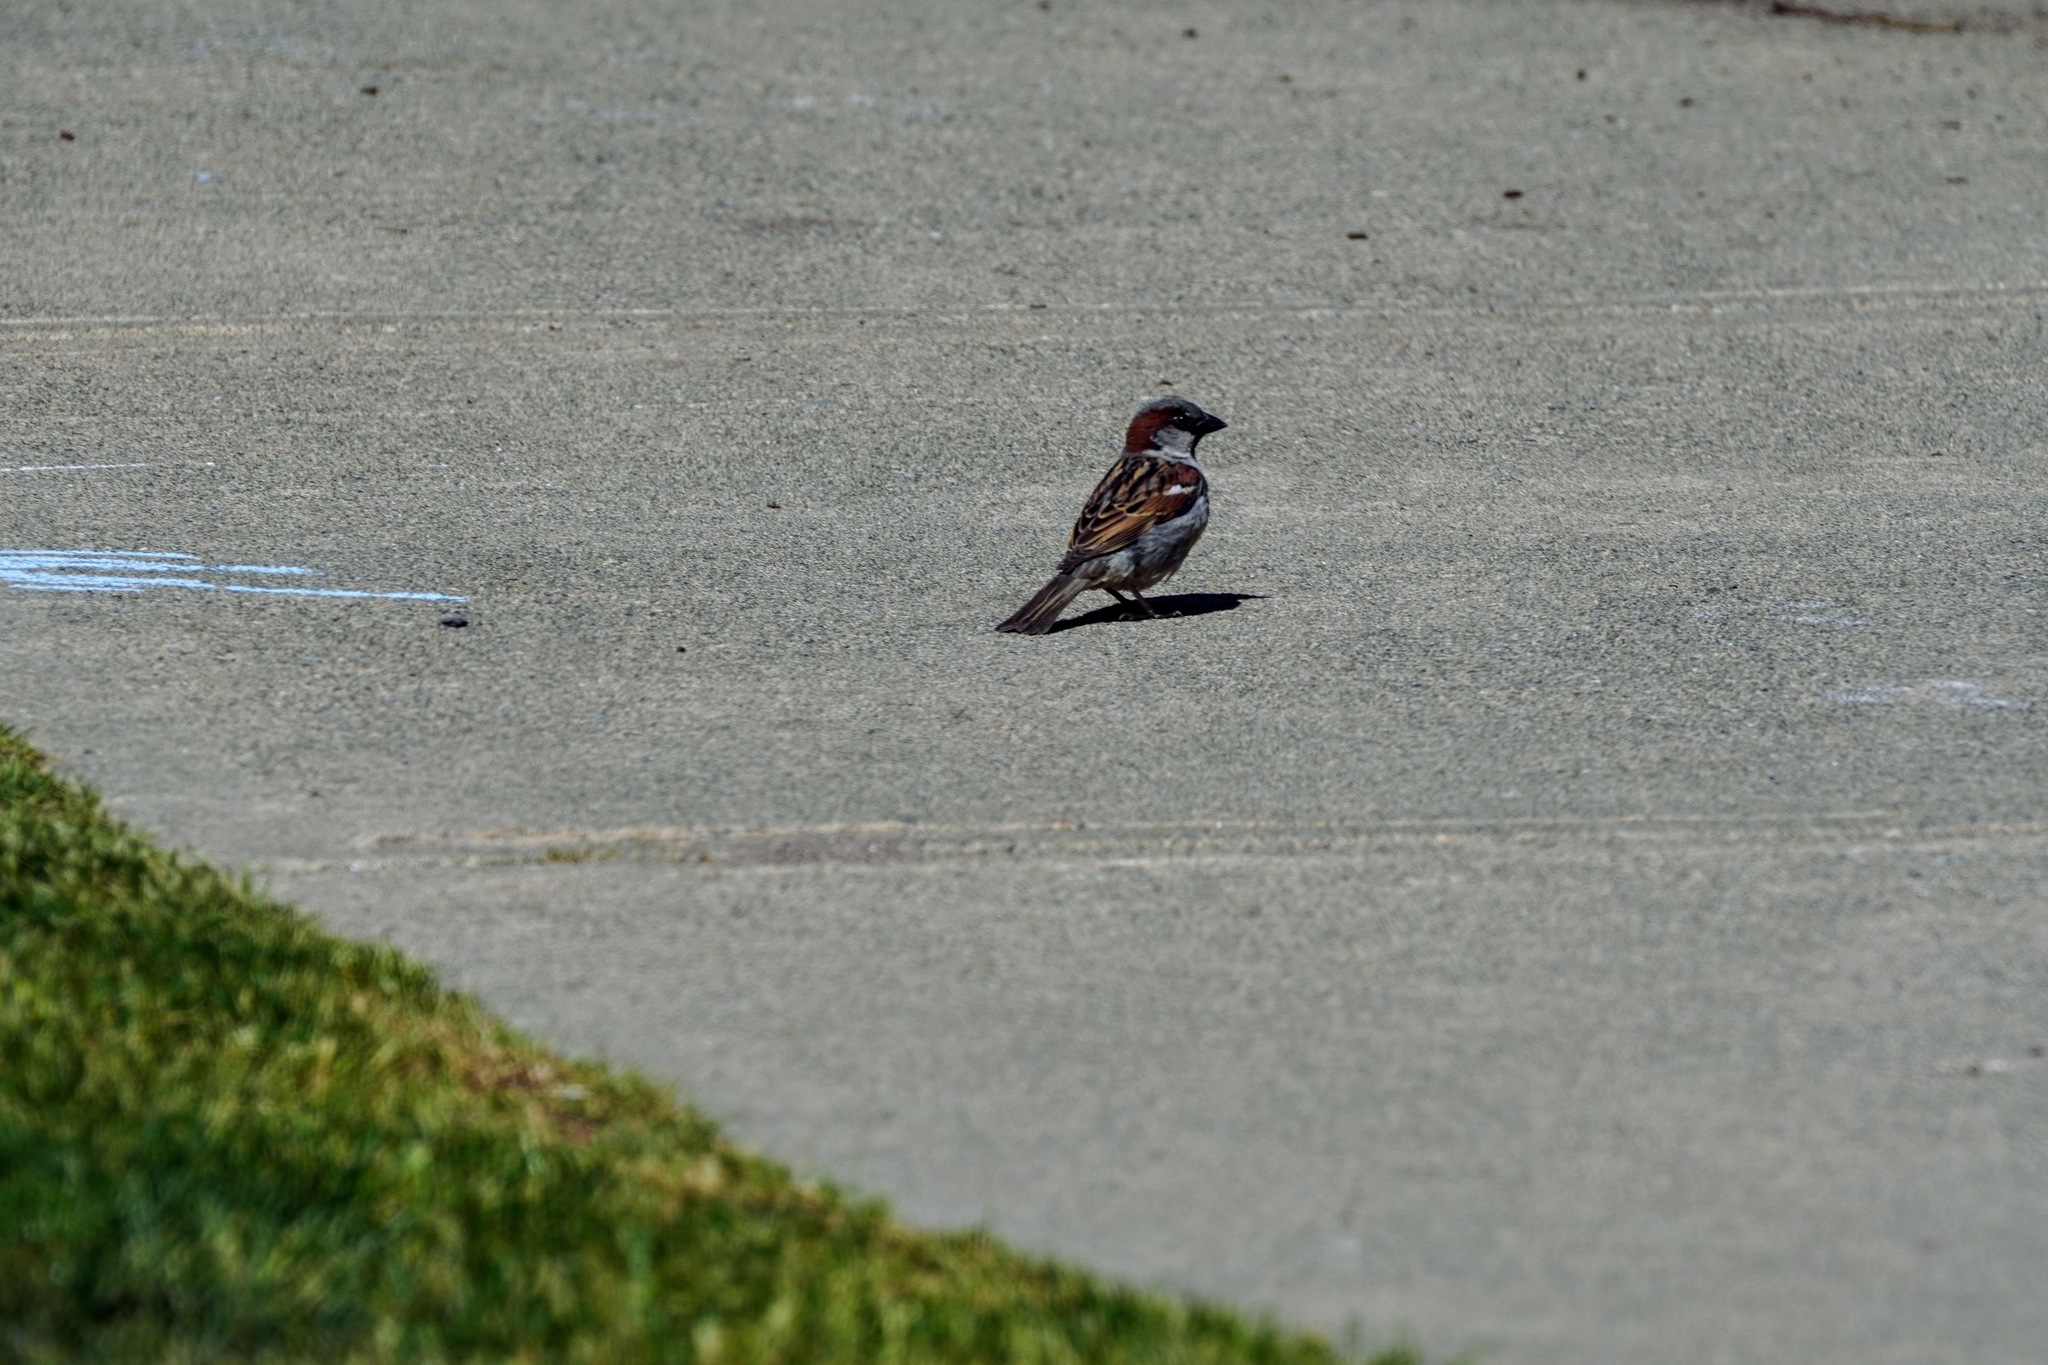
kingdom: Animalia
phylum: Chordata
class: Aves
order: Passeriformes
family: Passeridae
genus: Passer
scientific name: Passer domesticus
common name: House sparrow
